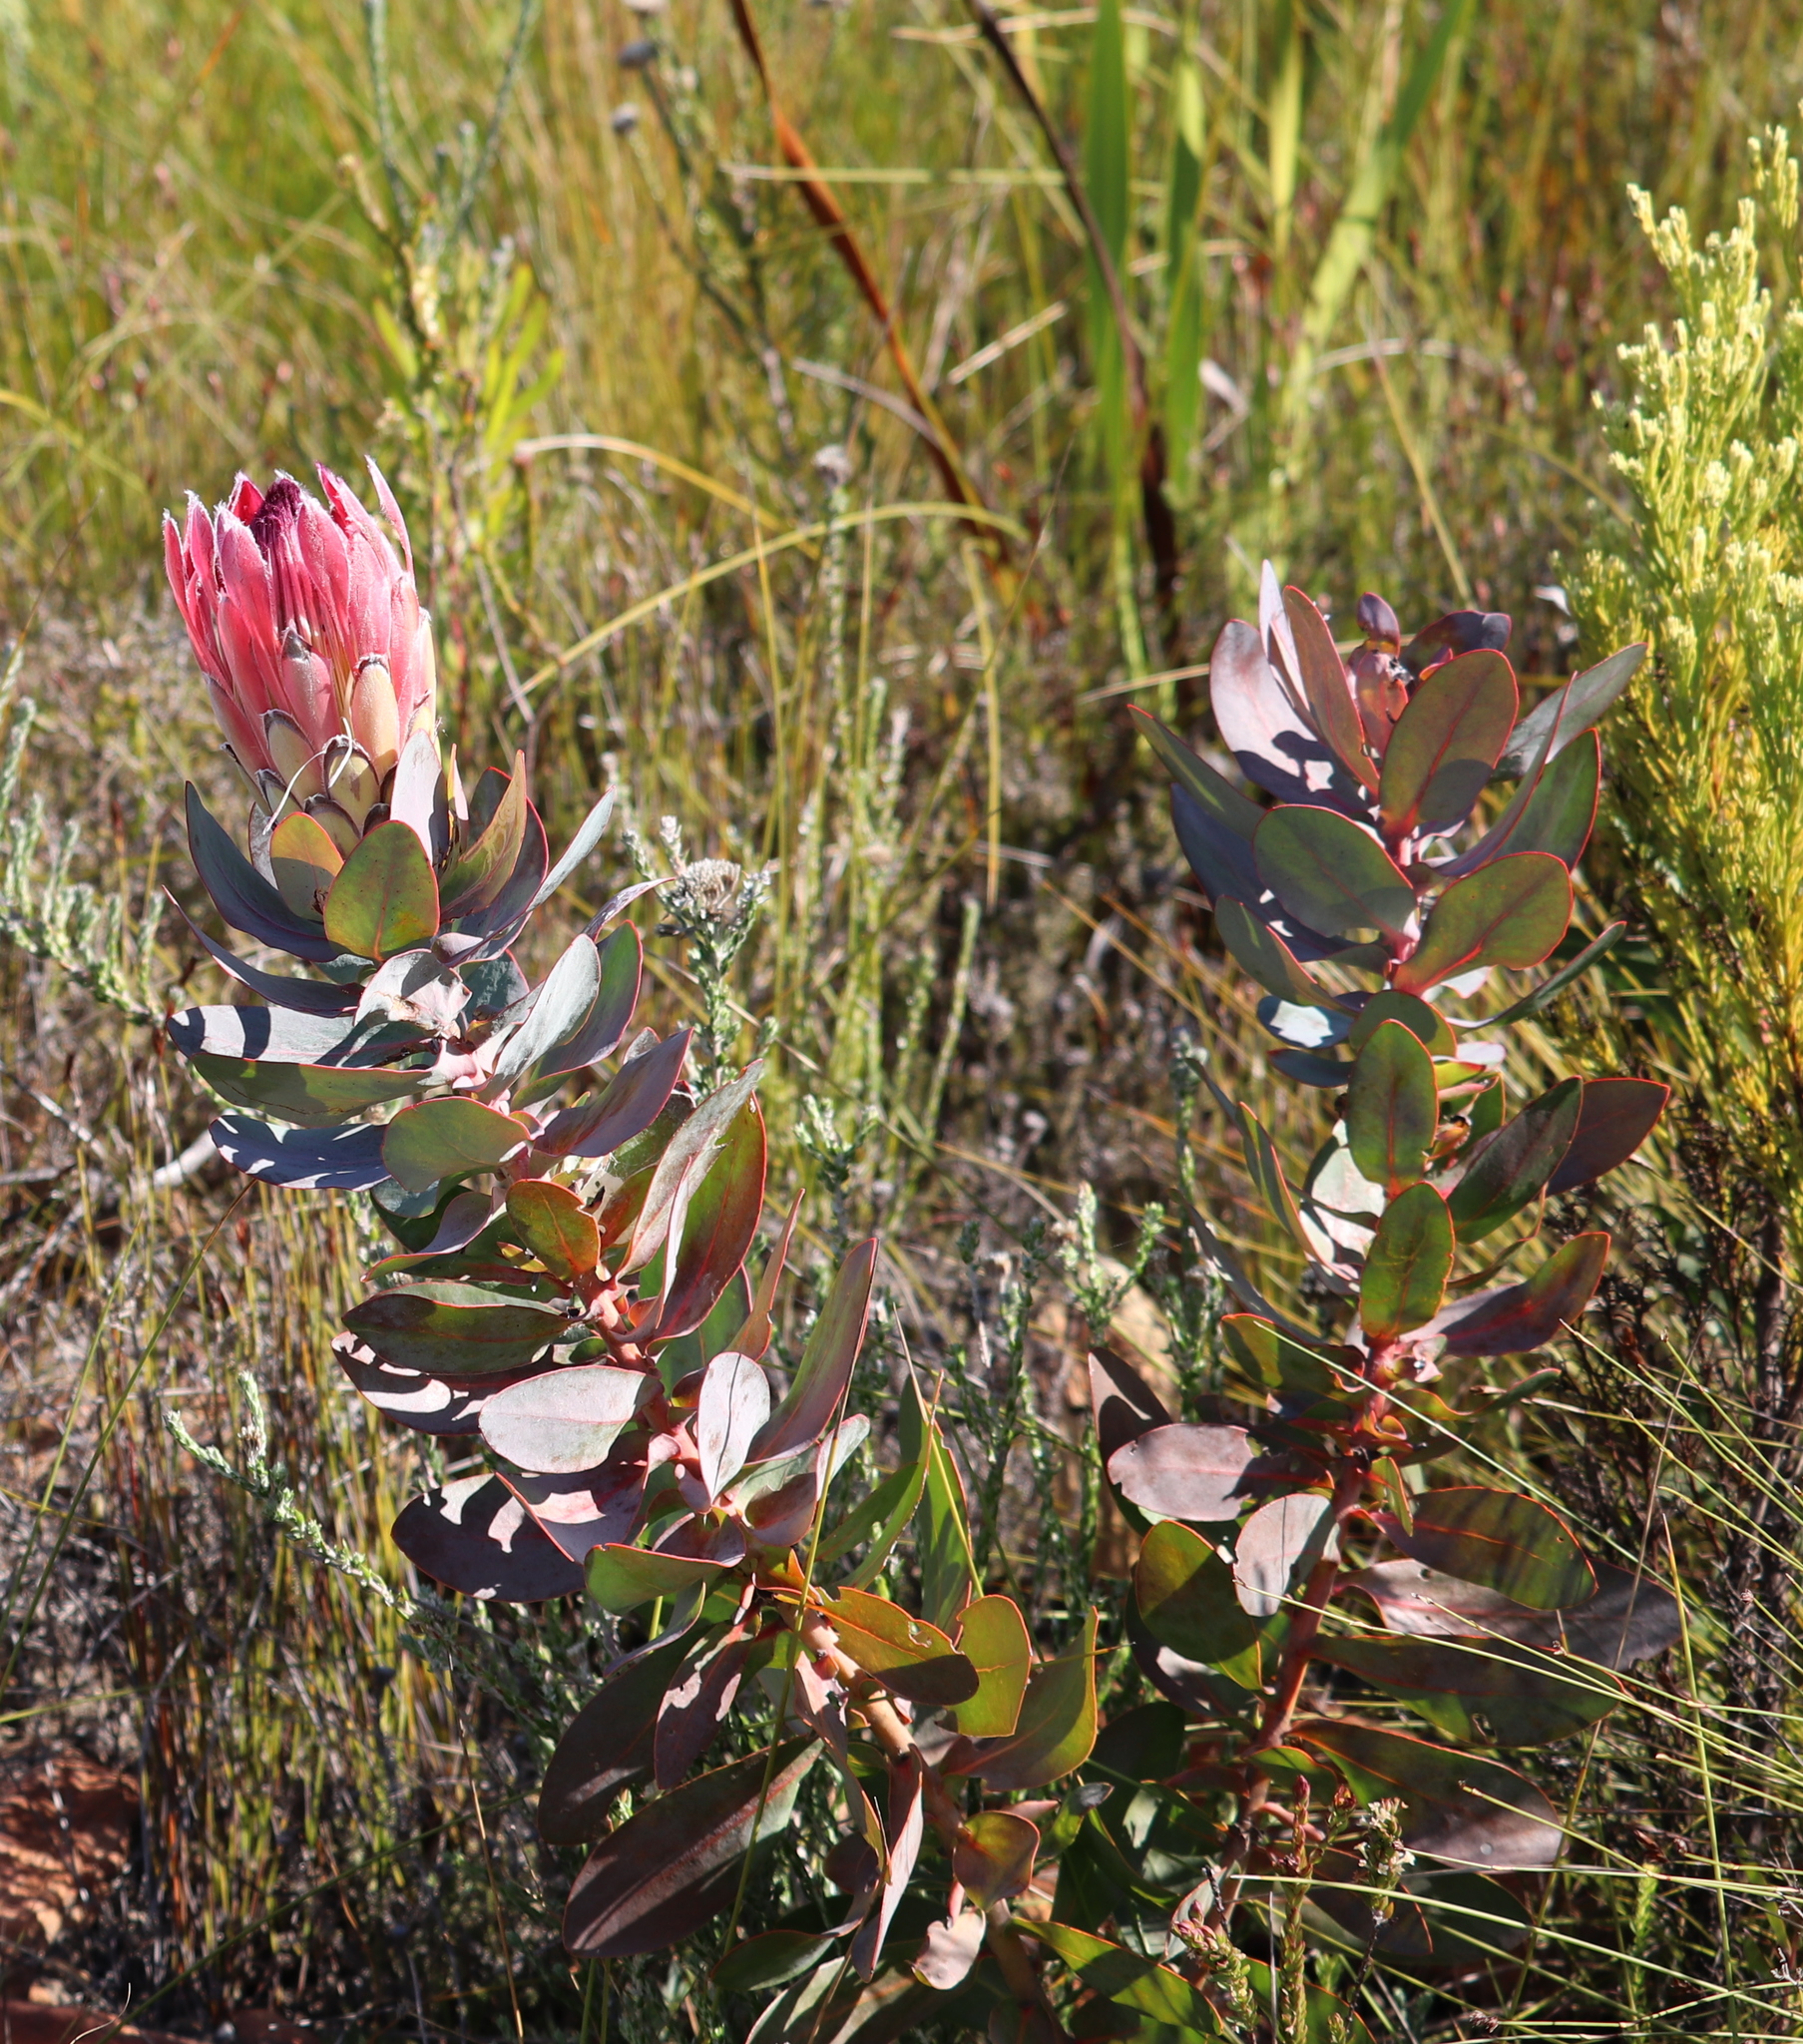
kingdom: Plantae
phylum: Tracheophyta
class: Magnoliopsida
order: Proteales
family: Proteaceae
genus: Protea
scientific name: Protea eximia
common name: Broad-leaved sugarbush
